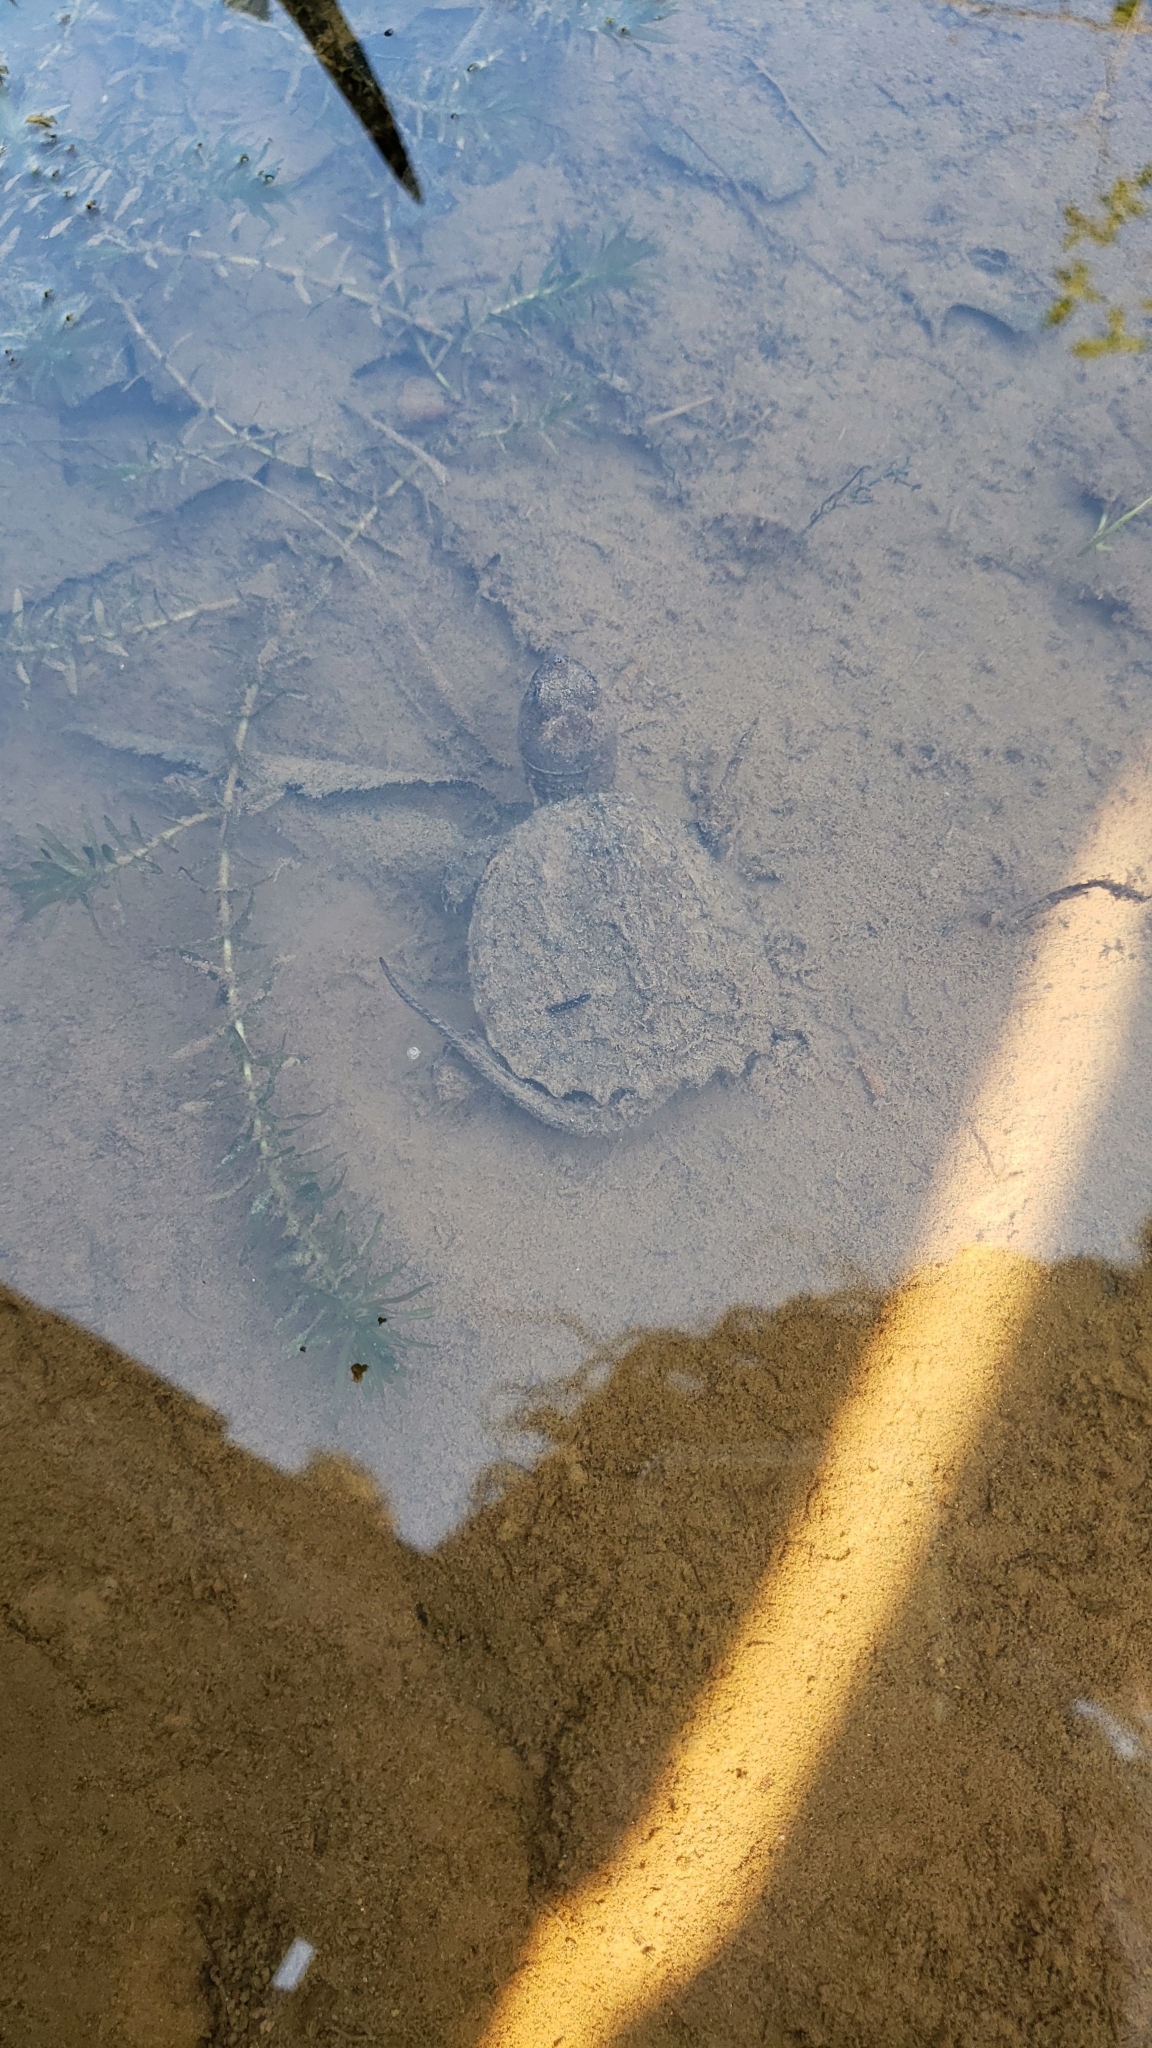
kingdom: Animalia
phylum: Chordata
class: Testudines
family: Chelydridae
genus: Chelydra
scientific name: Chelydra serpentina
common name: Common snapping turtle
